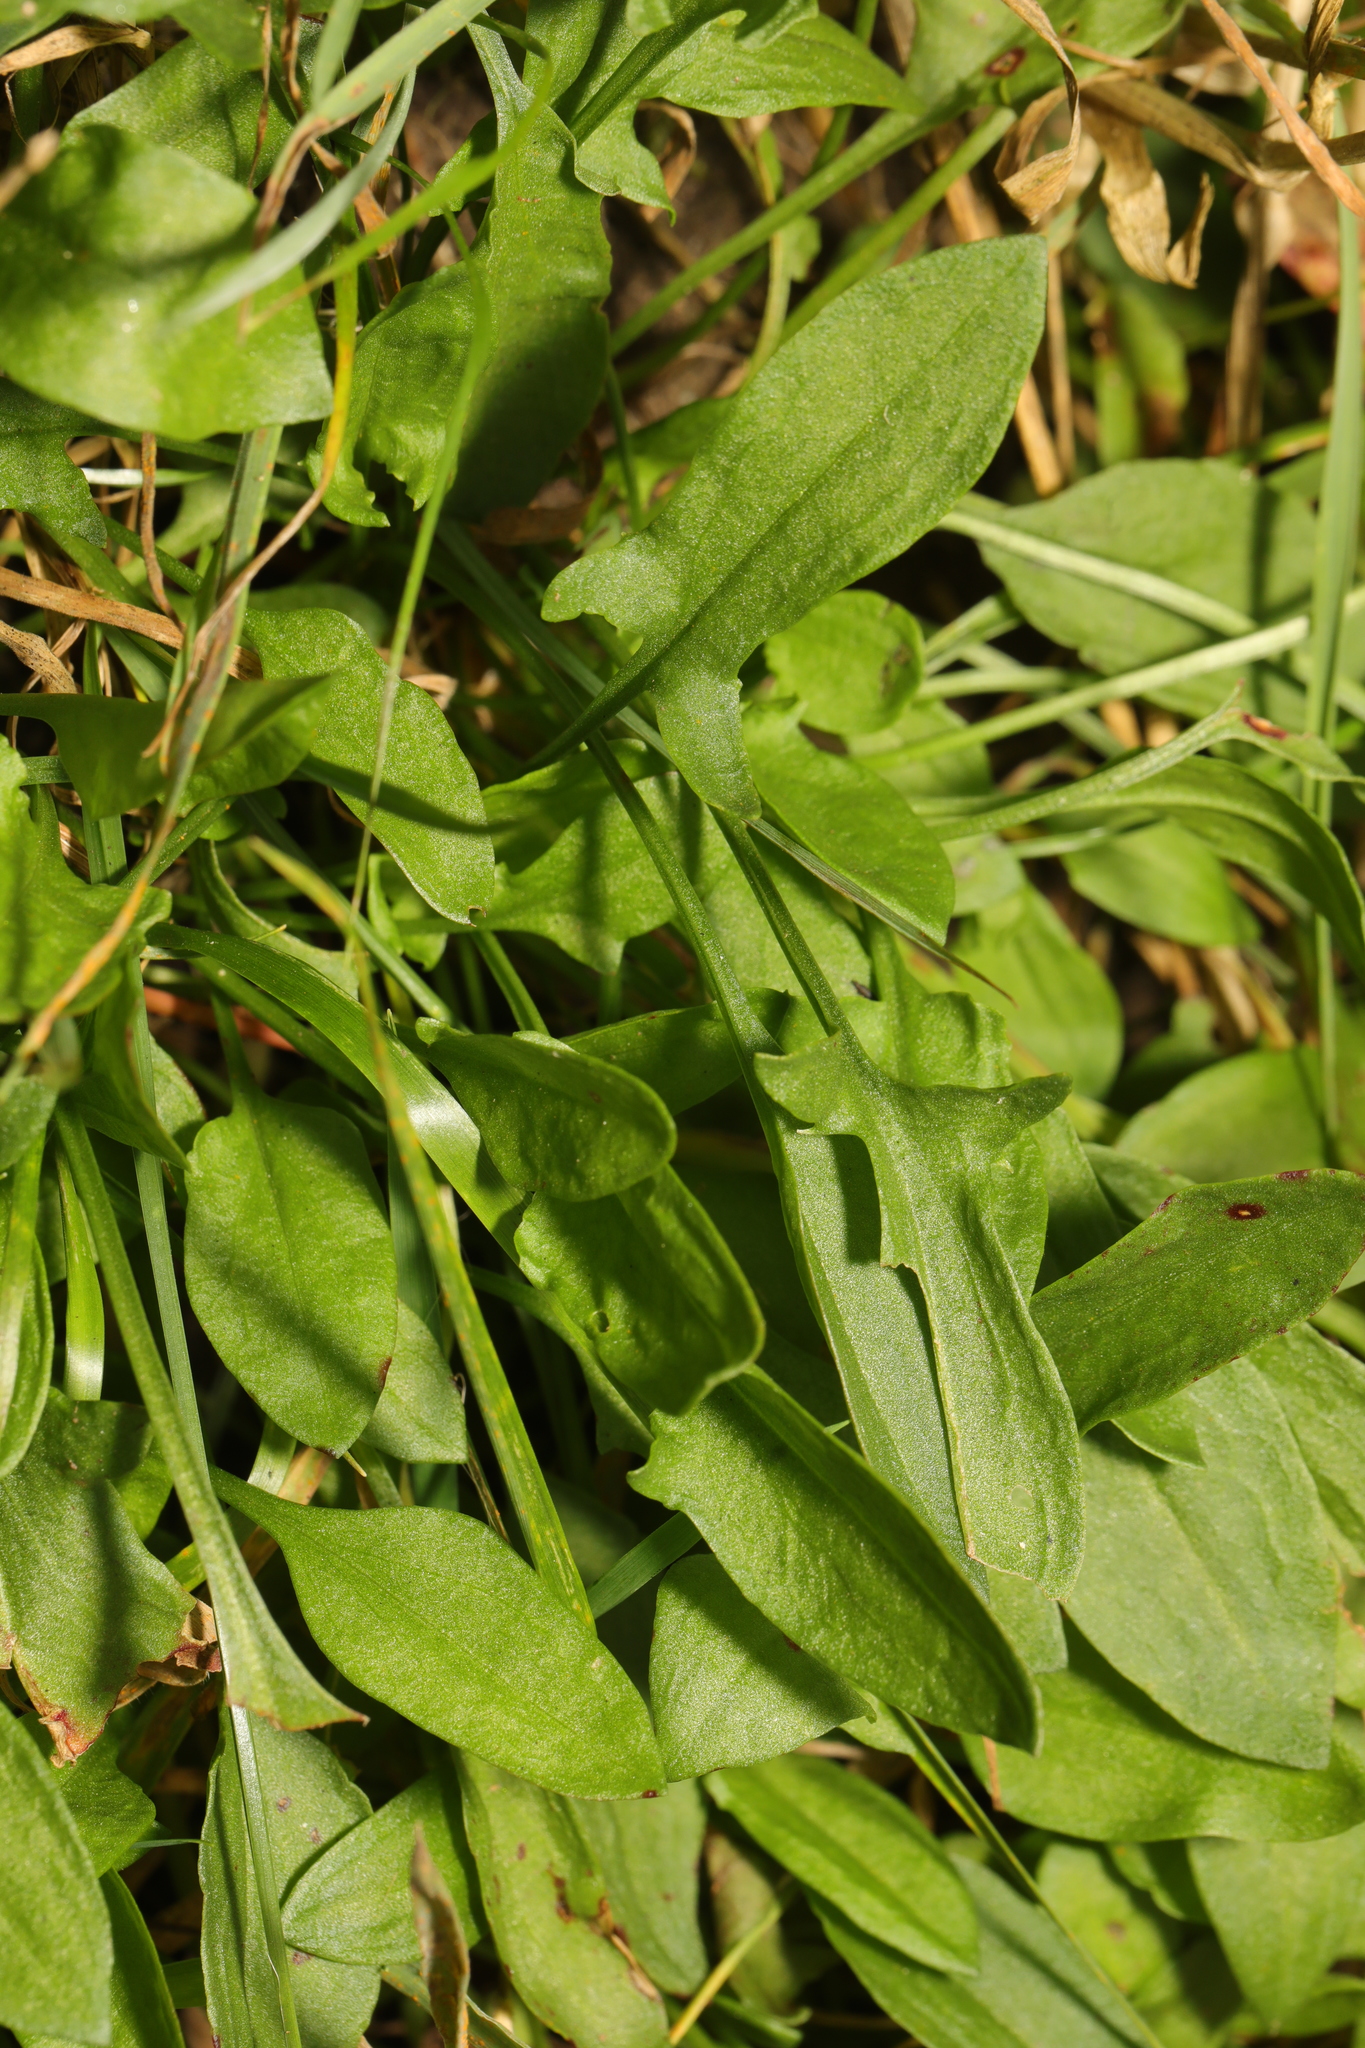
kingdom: Plantae
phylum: Tracheophyta
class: Magnoliopsida
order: Caryophyllales
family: Polygonaceae
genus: Rumex
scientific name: Rumex acetosella
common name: Common sheep sorrel
